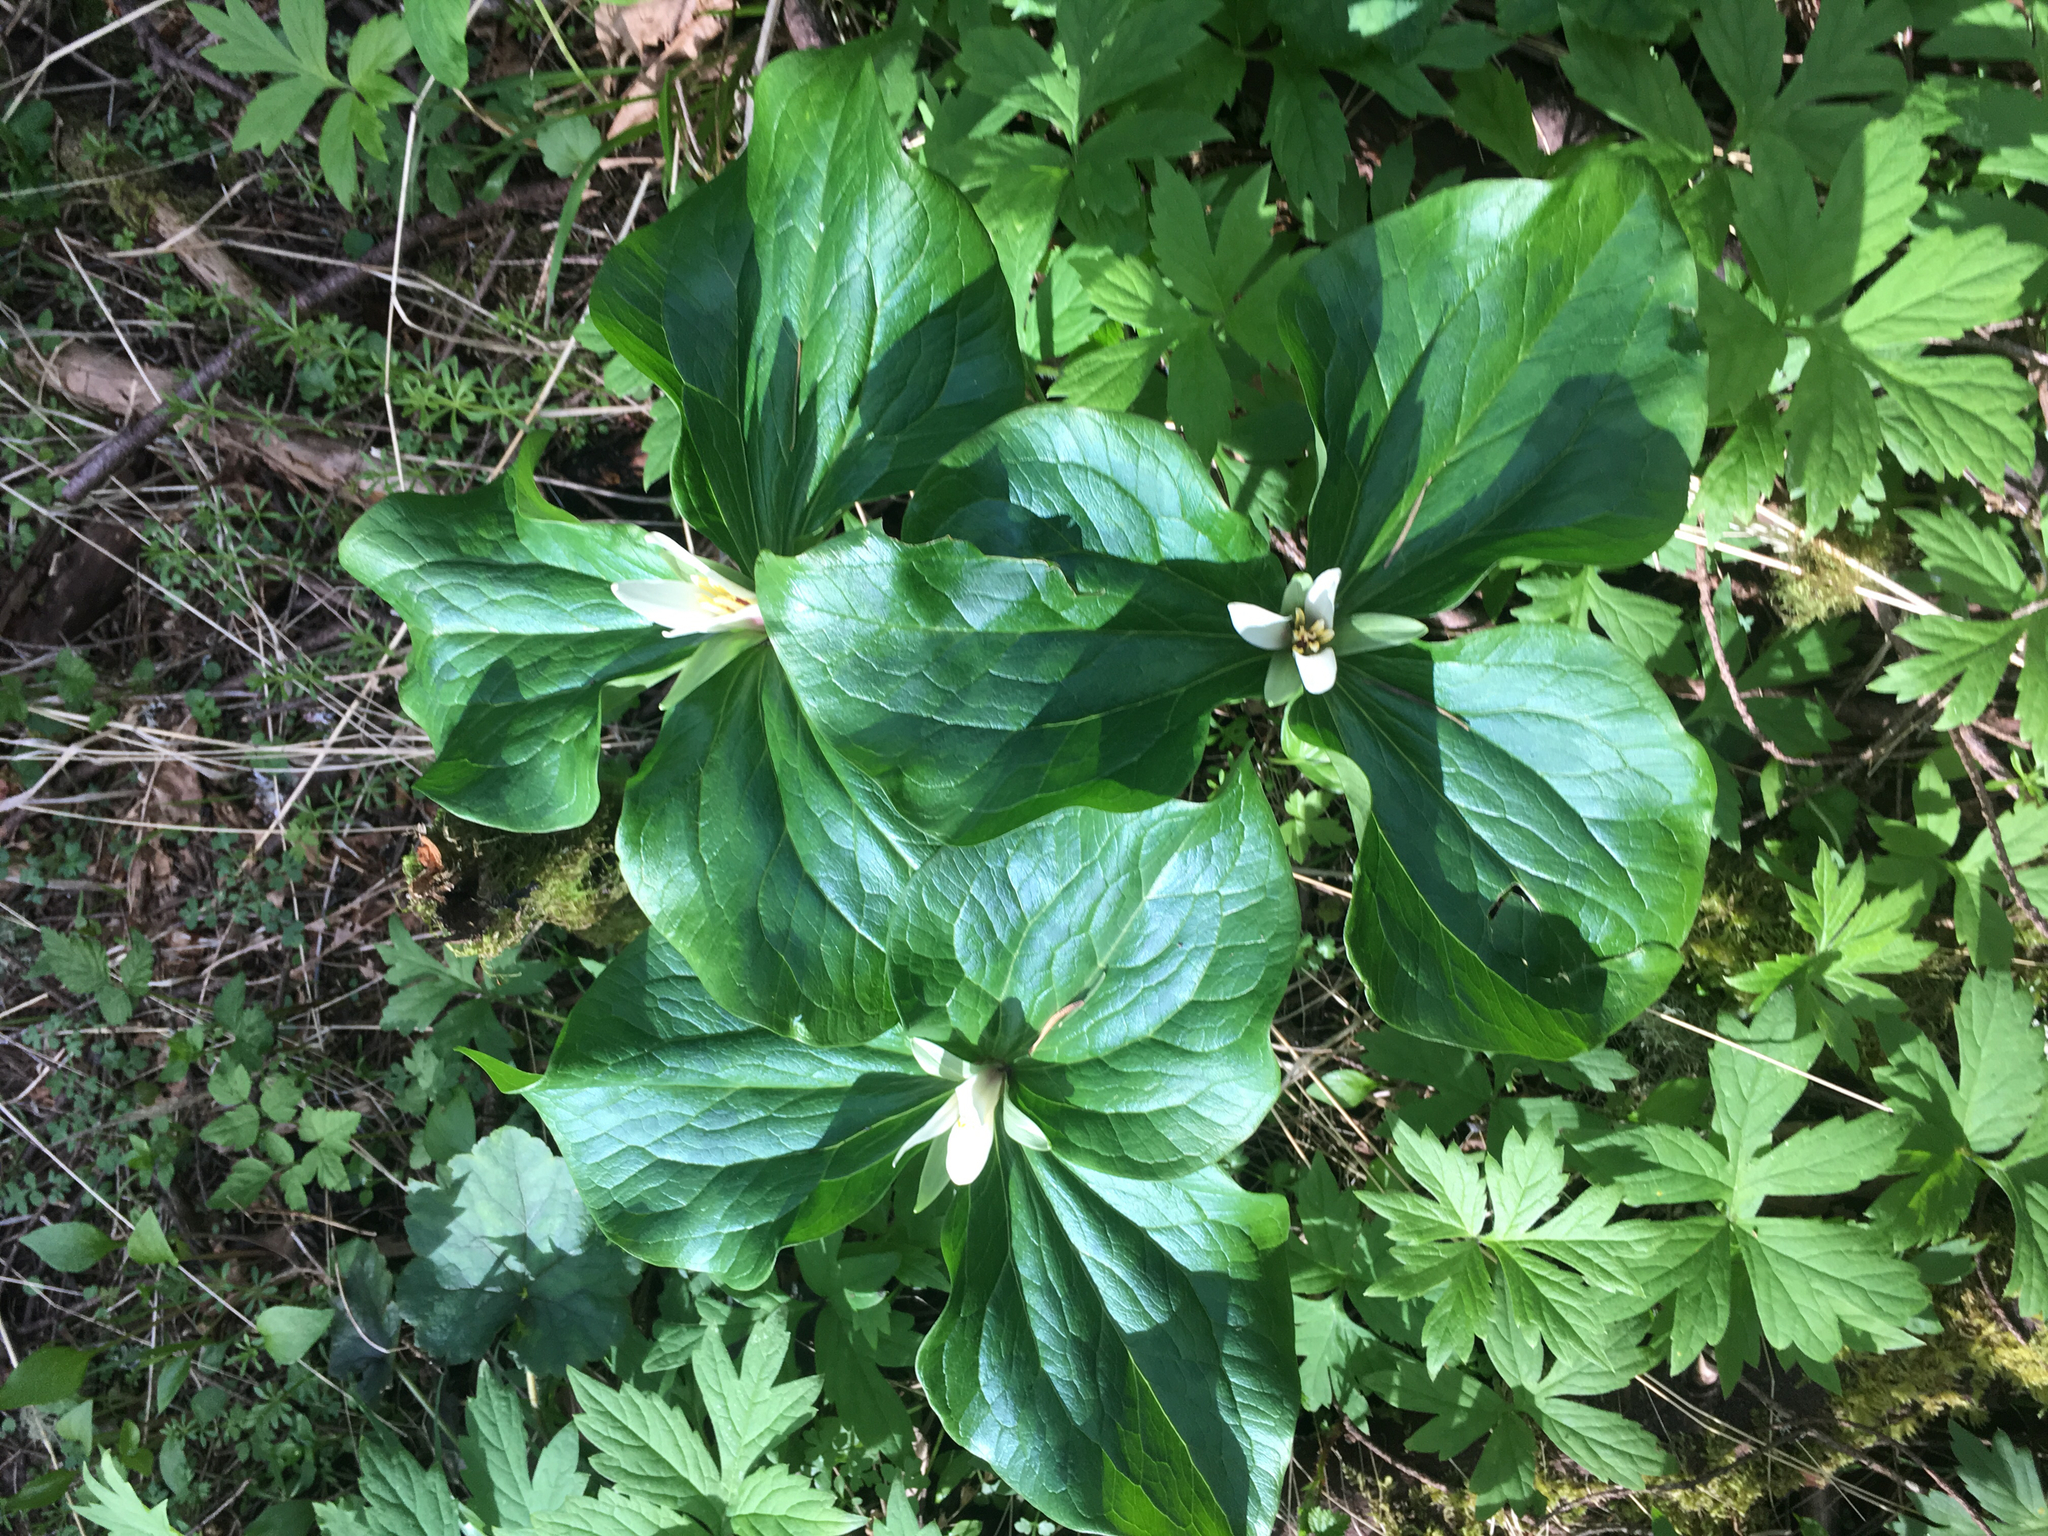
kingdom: Plantae
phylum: Tracheophyta
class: Liliopsida
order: Liliales
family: Melanthiaceae
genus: Trillium
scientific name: Trillium albidum
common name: Freeman's trillium
